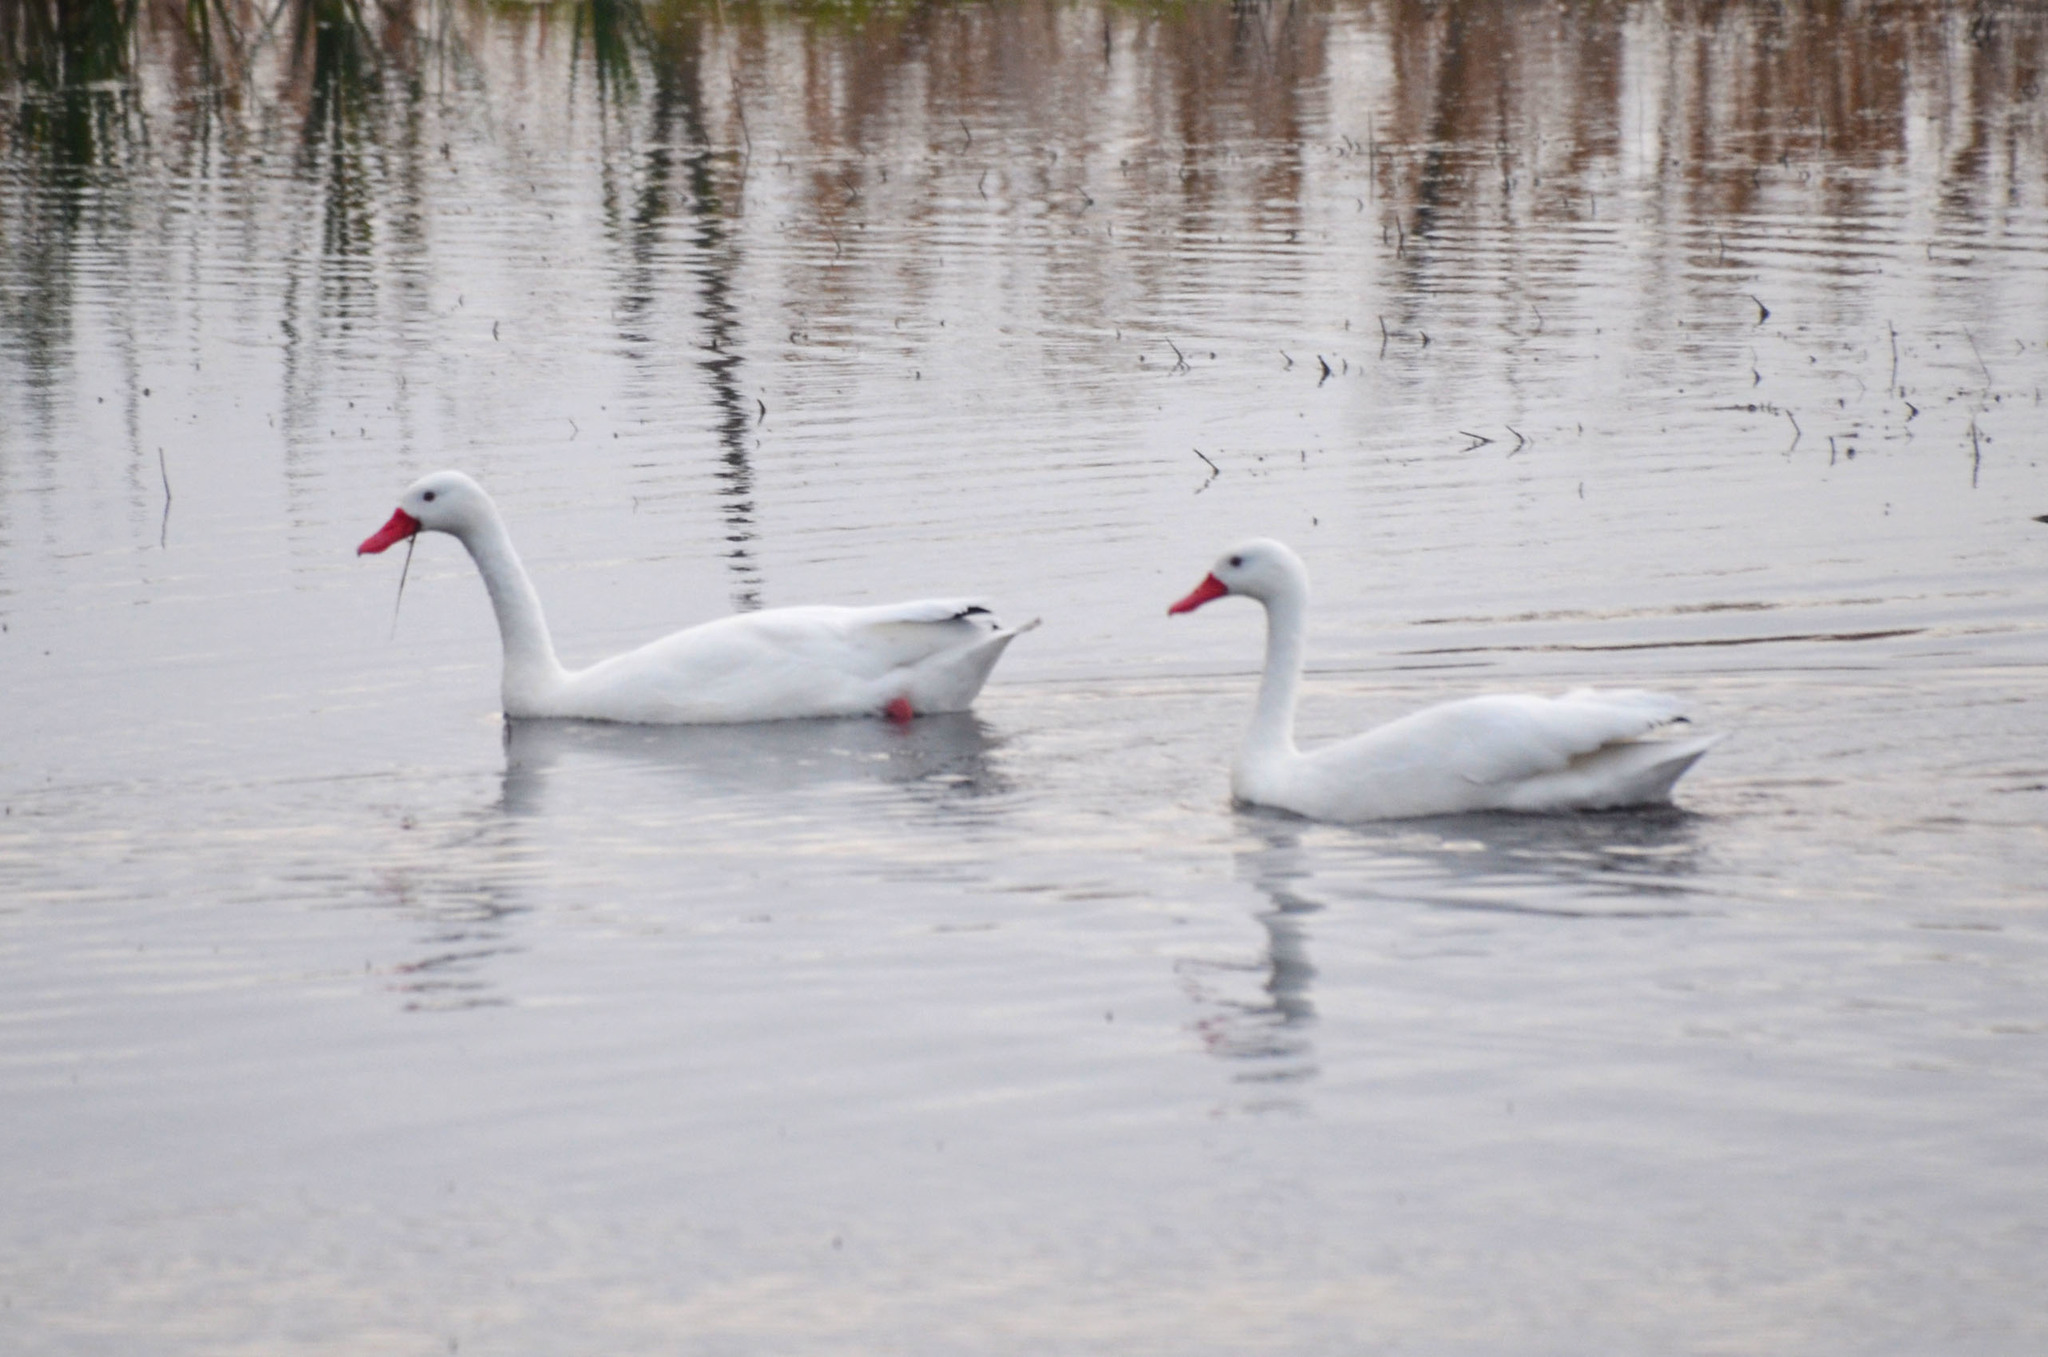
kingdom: Animalia
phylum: Chordata
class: Aves
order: Anseriformes
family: Anatidae
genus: Coscoroba
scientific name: Coscoroba coscoroba
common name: Coscoroba swan
